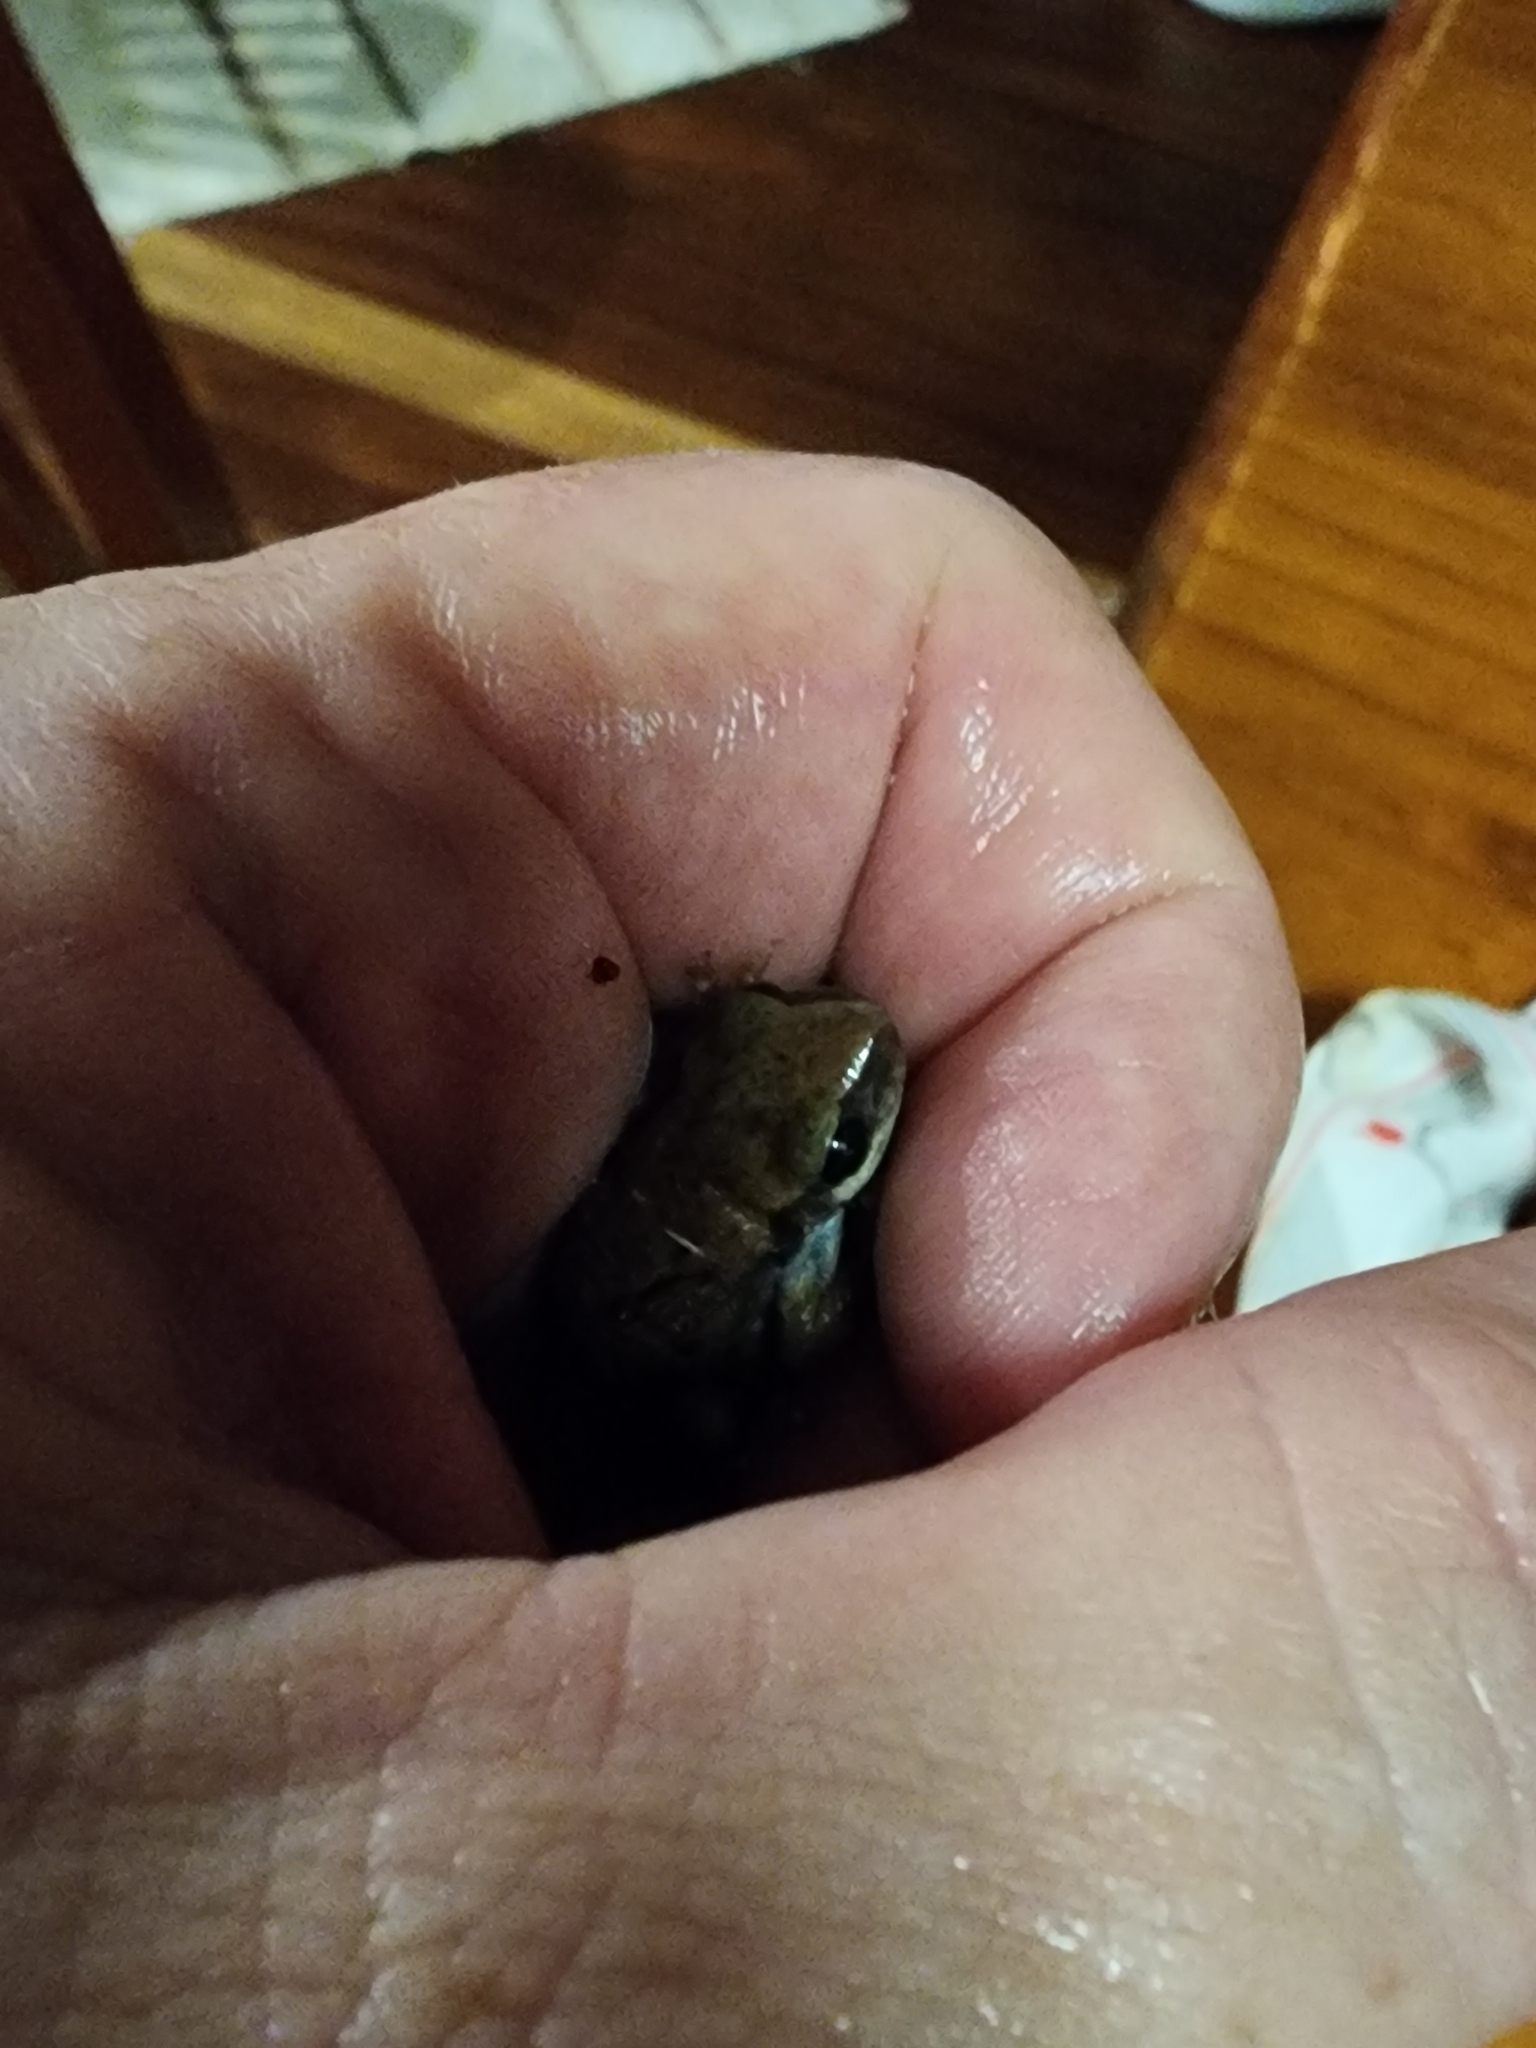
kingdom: Animalia
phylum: Chordata
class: Amphibia
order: Anura
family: Pelodryadidae
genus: Litoria
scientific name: Litoria rubella
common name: Desert tree frog
